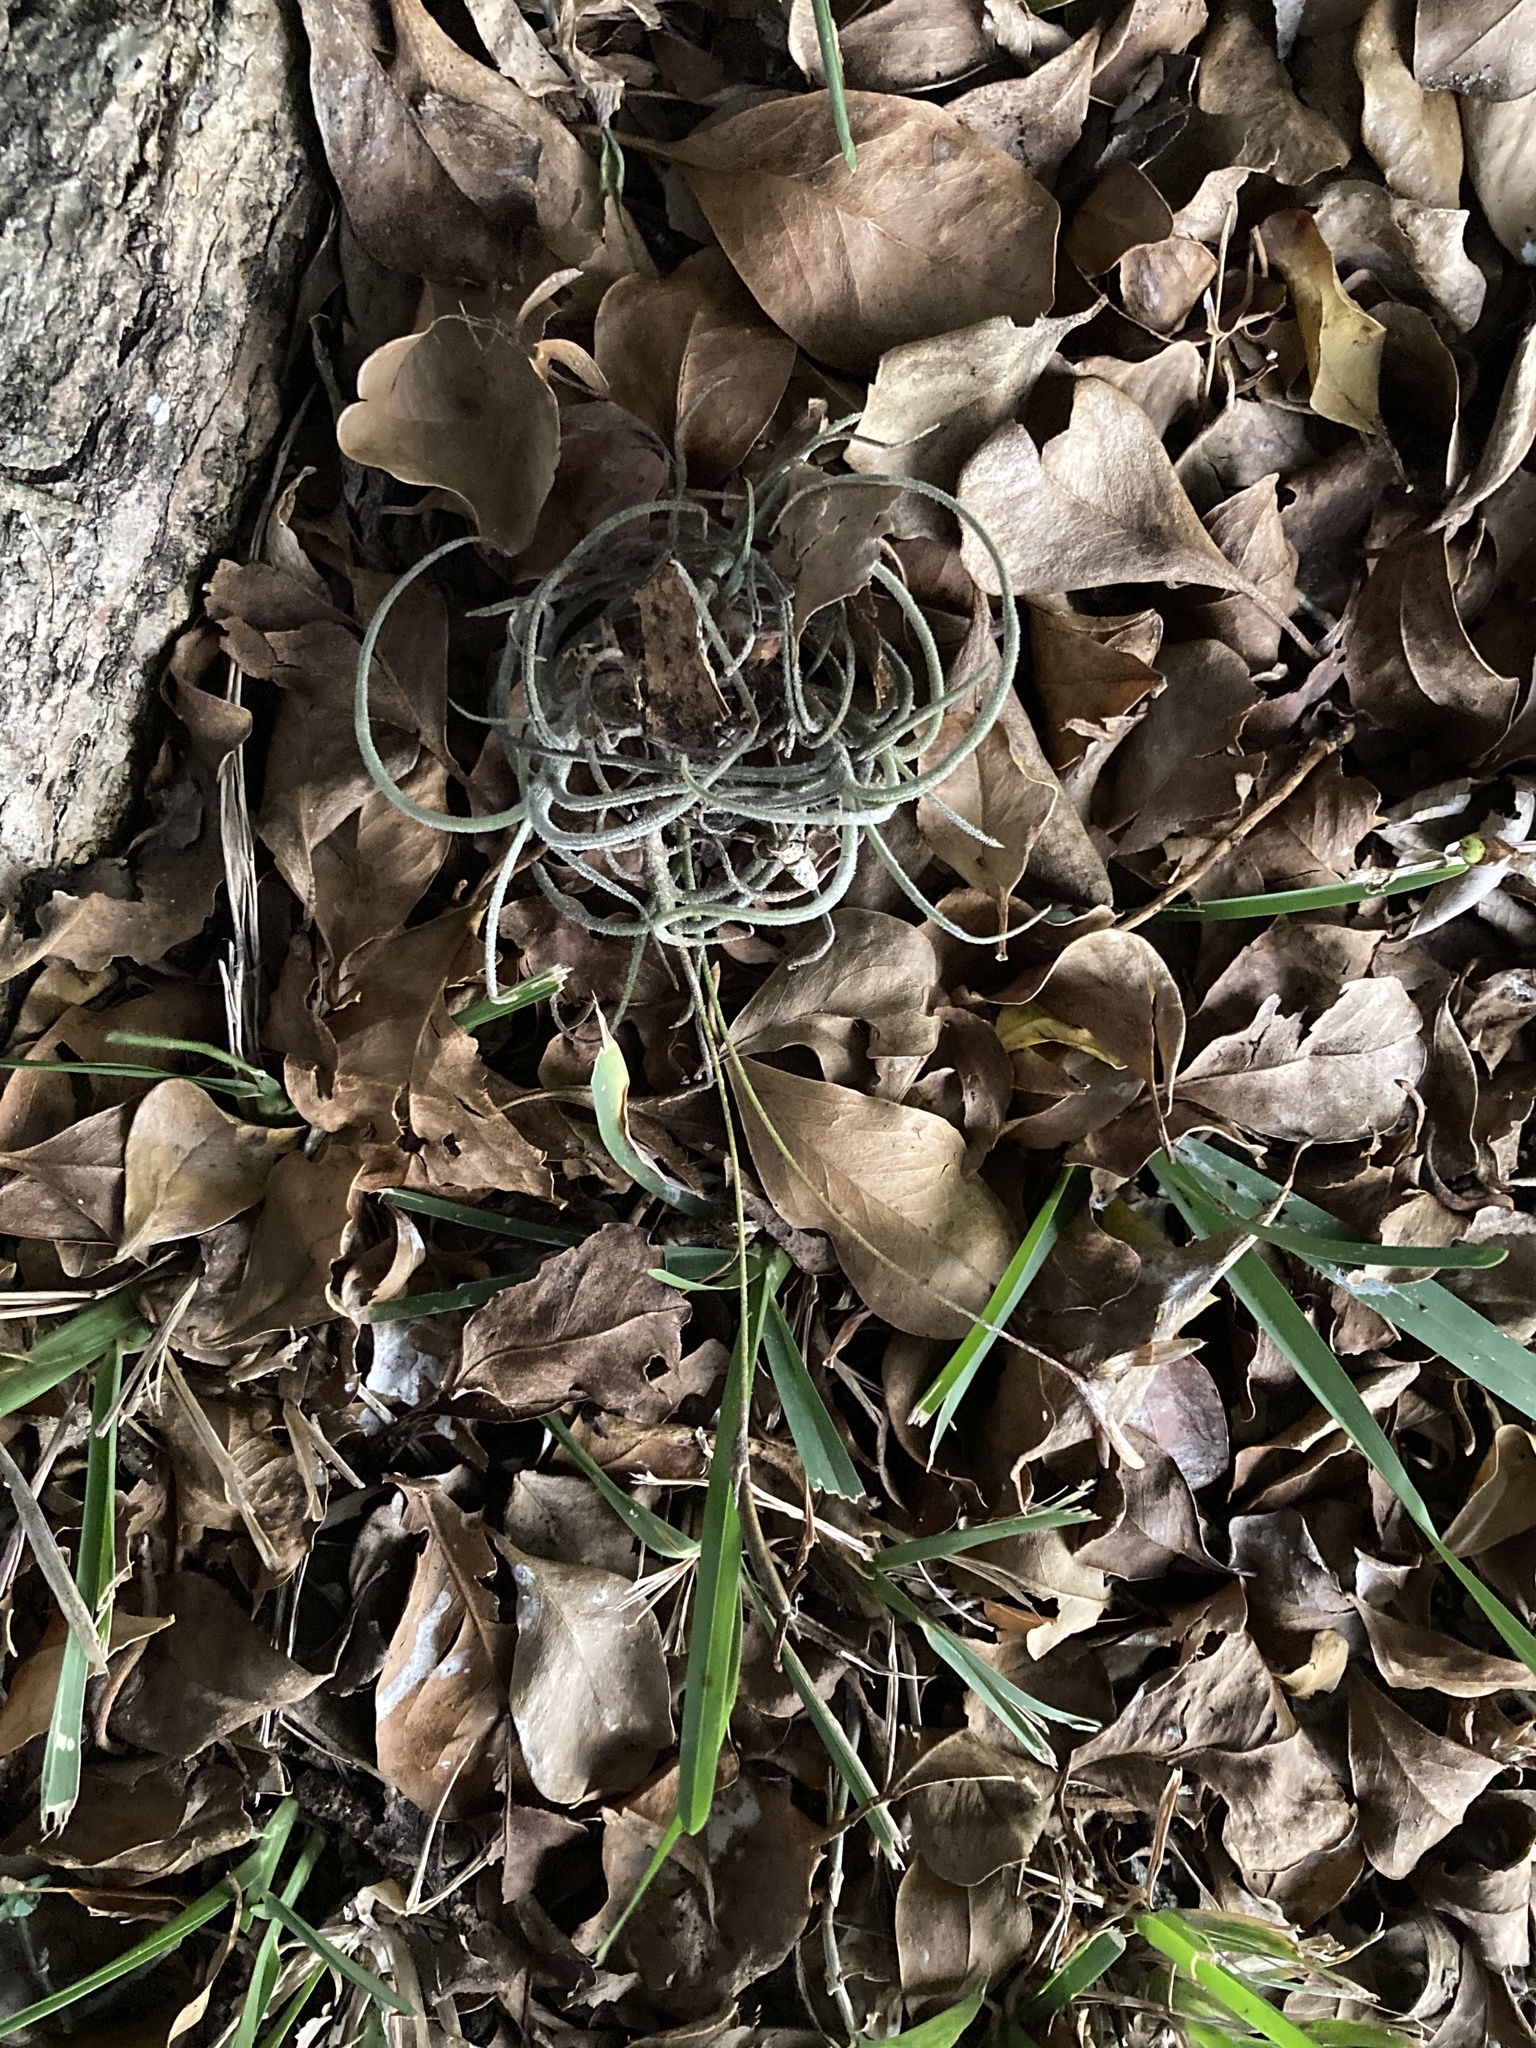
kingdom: Plantae
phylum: Tracheophyta
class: Liliopsida
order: Poales
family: Bromeliaceae
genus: Tillandsia
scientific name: Tillandsia recurvata
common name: Small ballmoss
